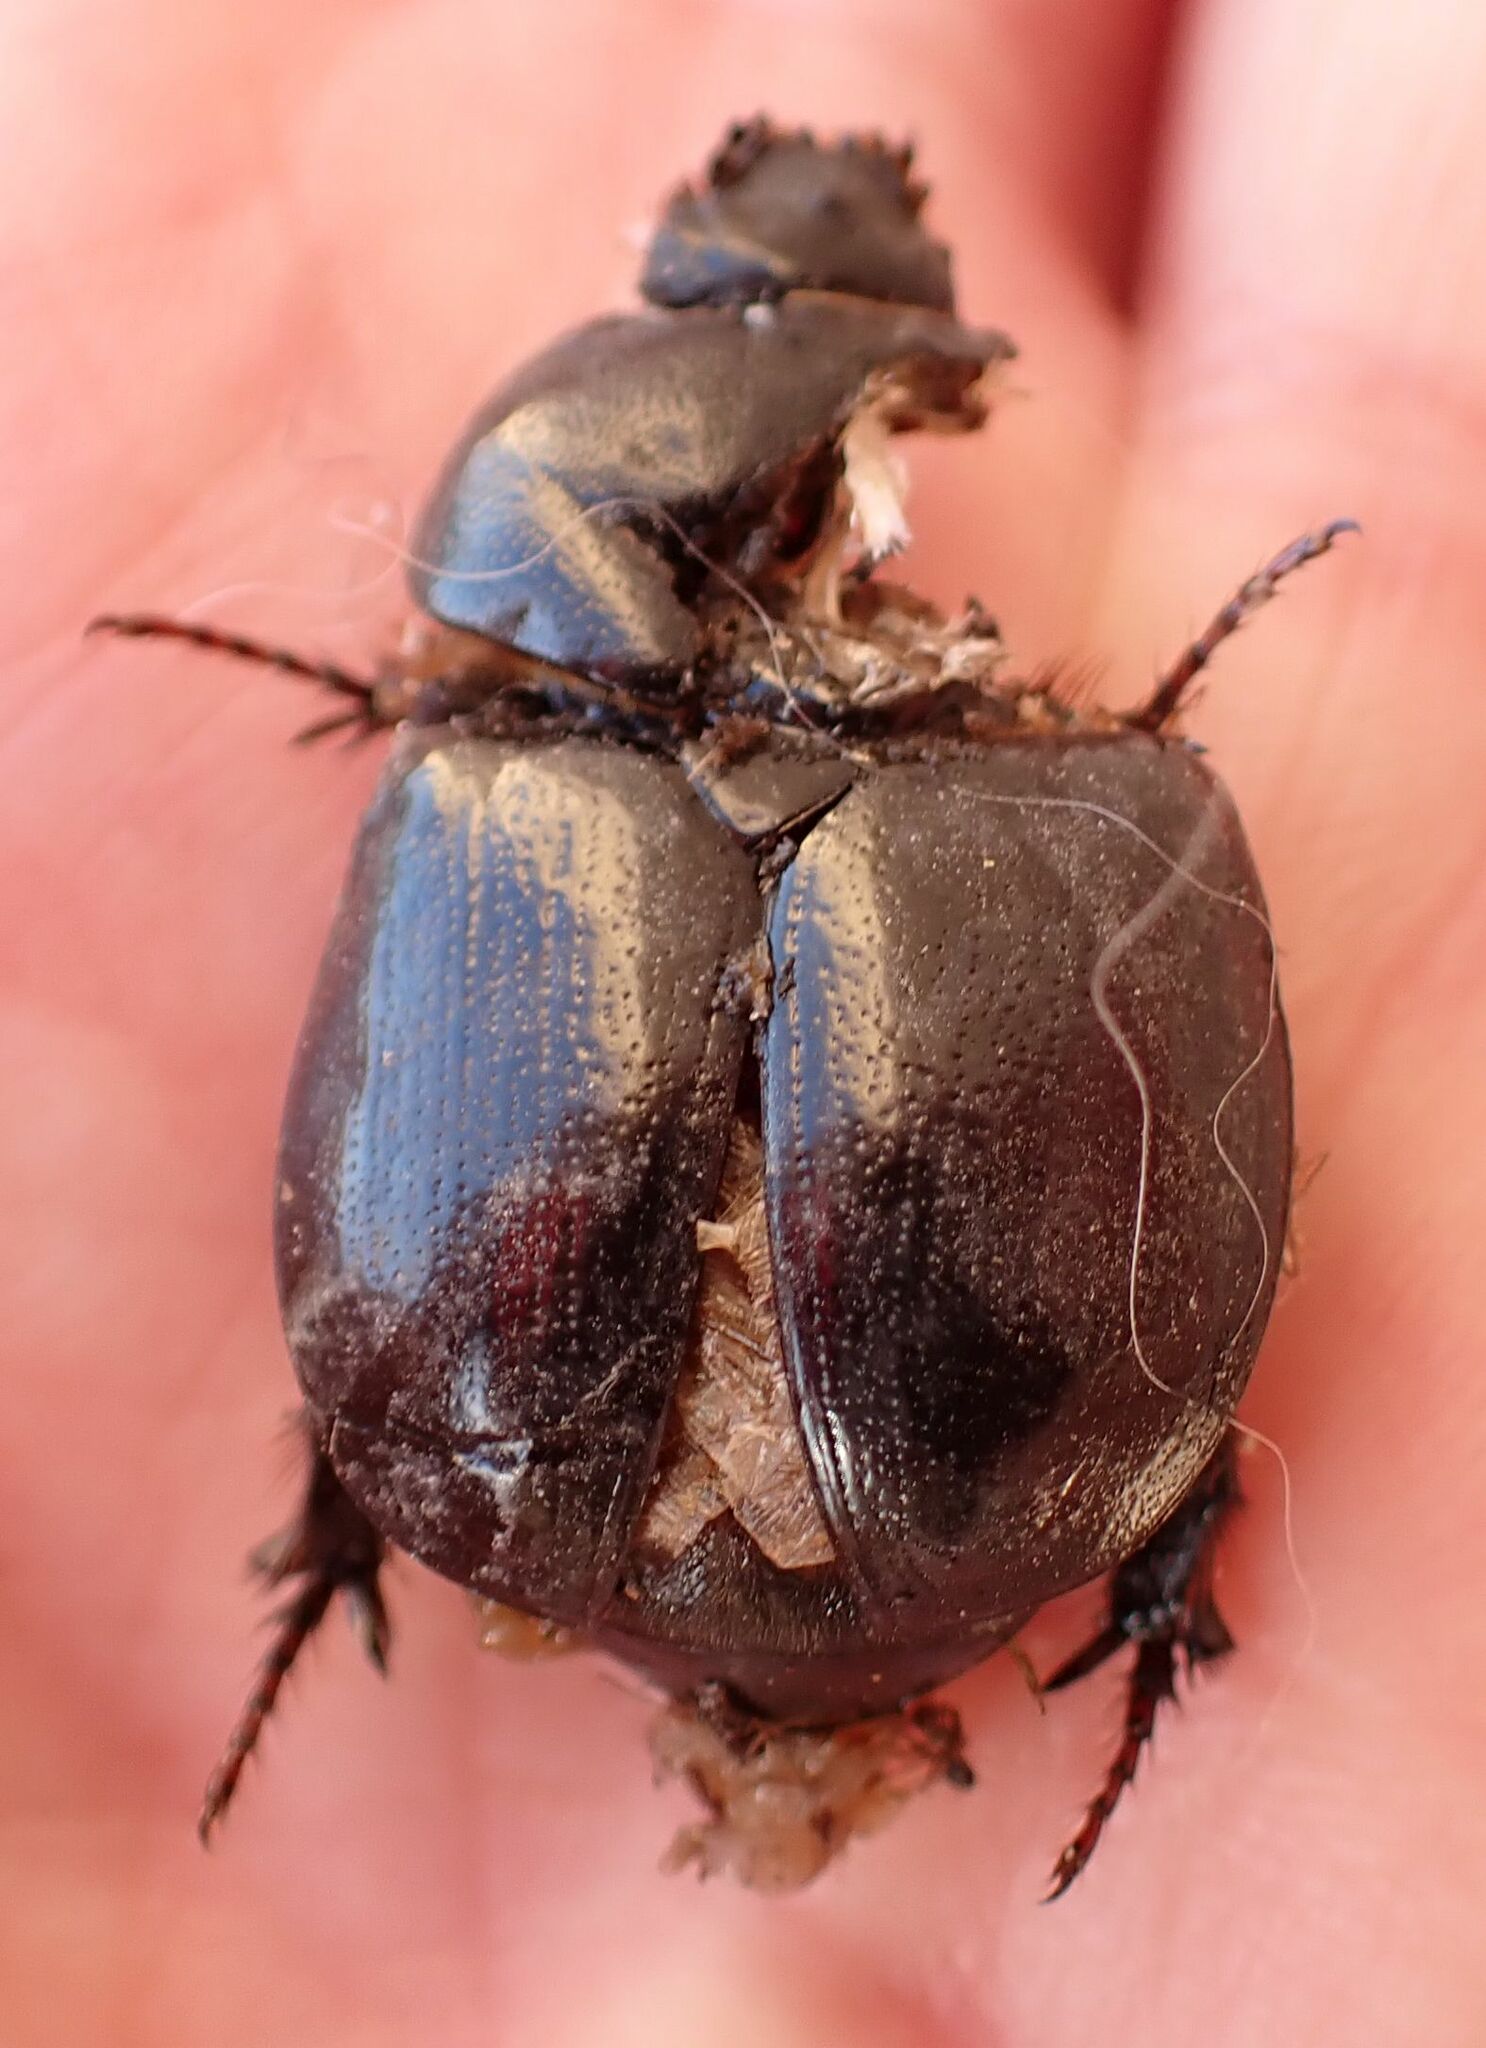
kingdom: Animalia
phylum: Arthropoda
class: Insecta
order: Coleoptera
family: Scarabaeidae
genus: Phyllognathus
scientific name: Phyllognathus excavatus
